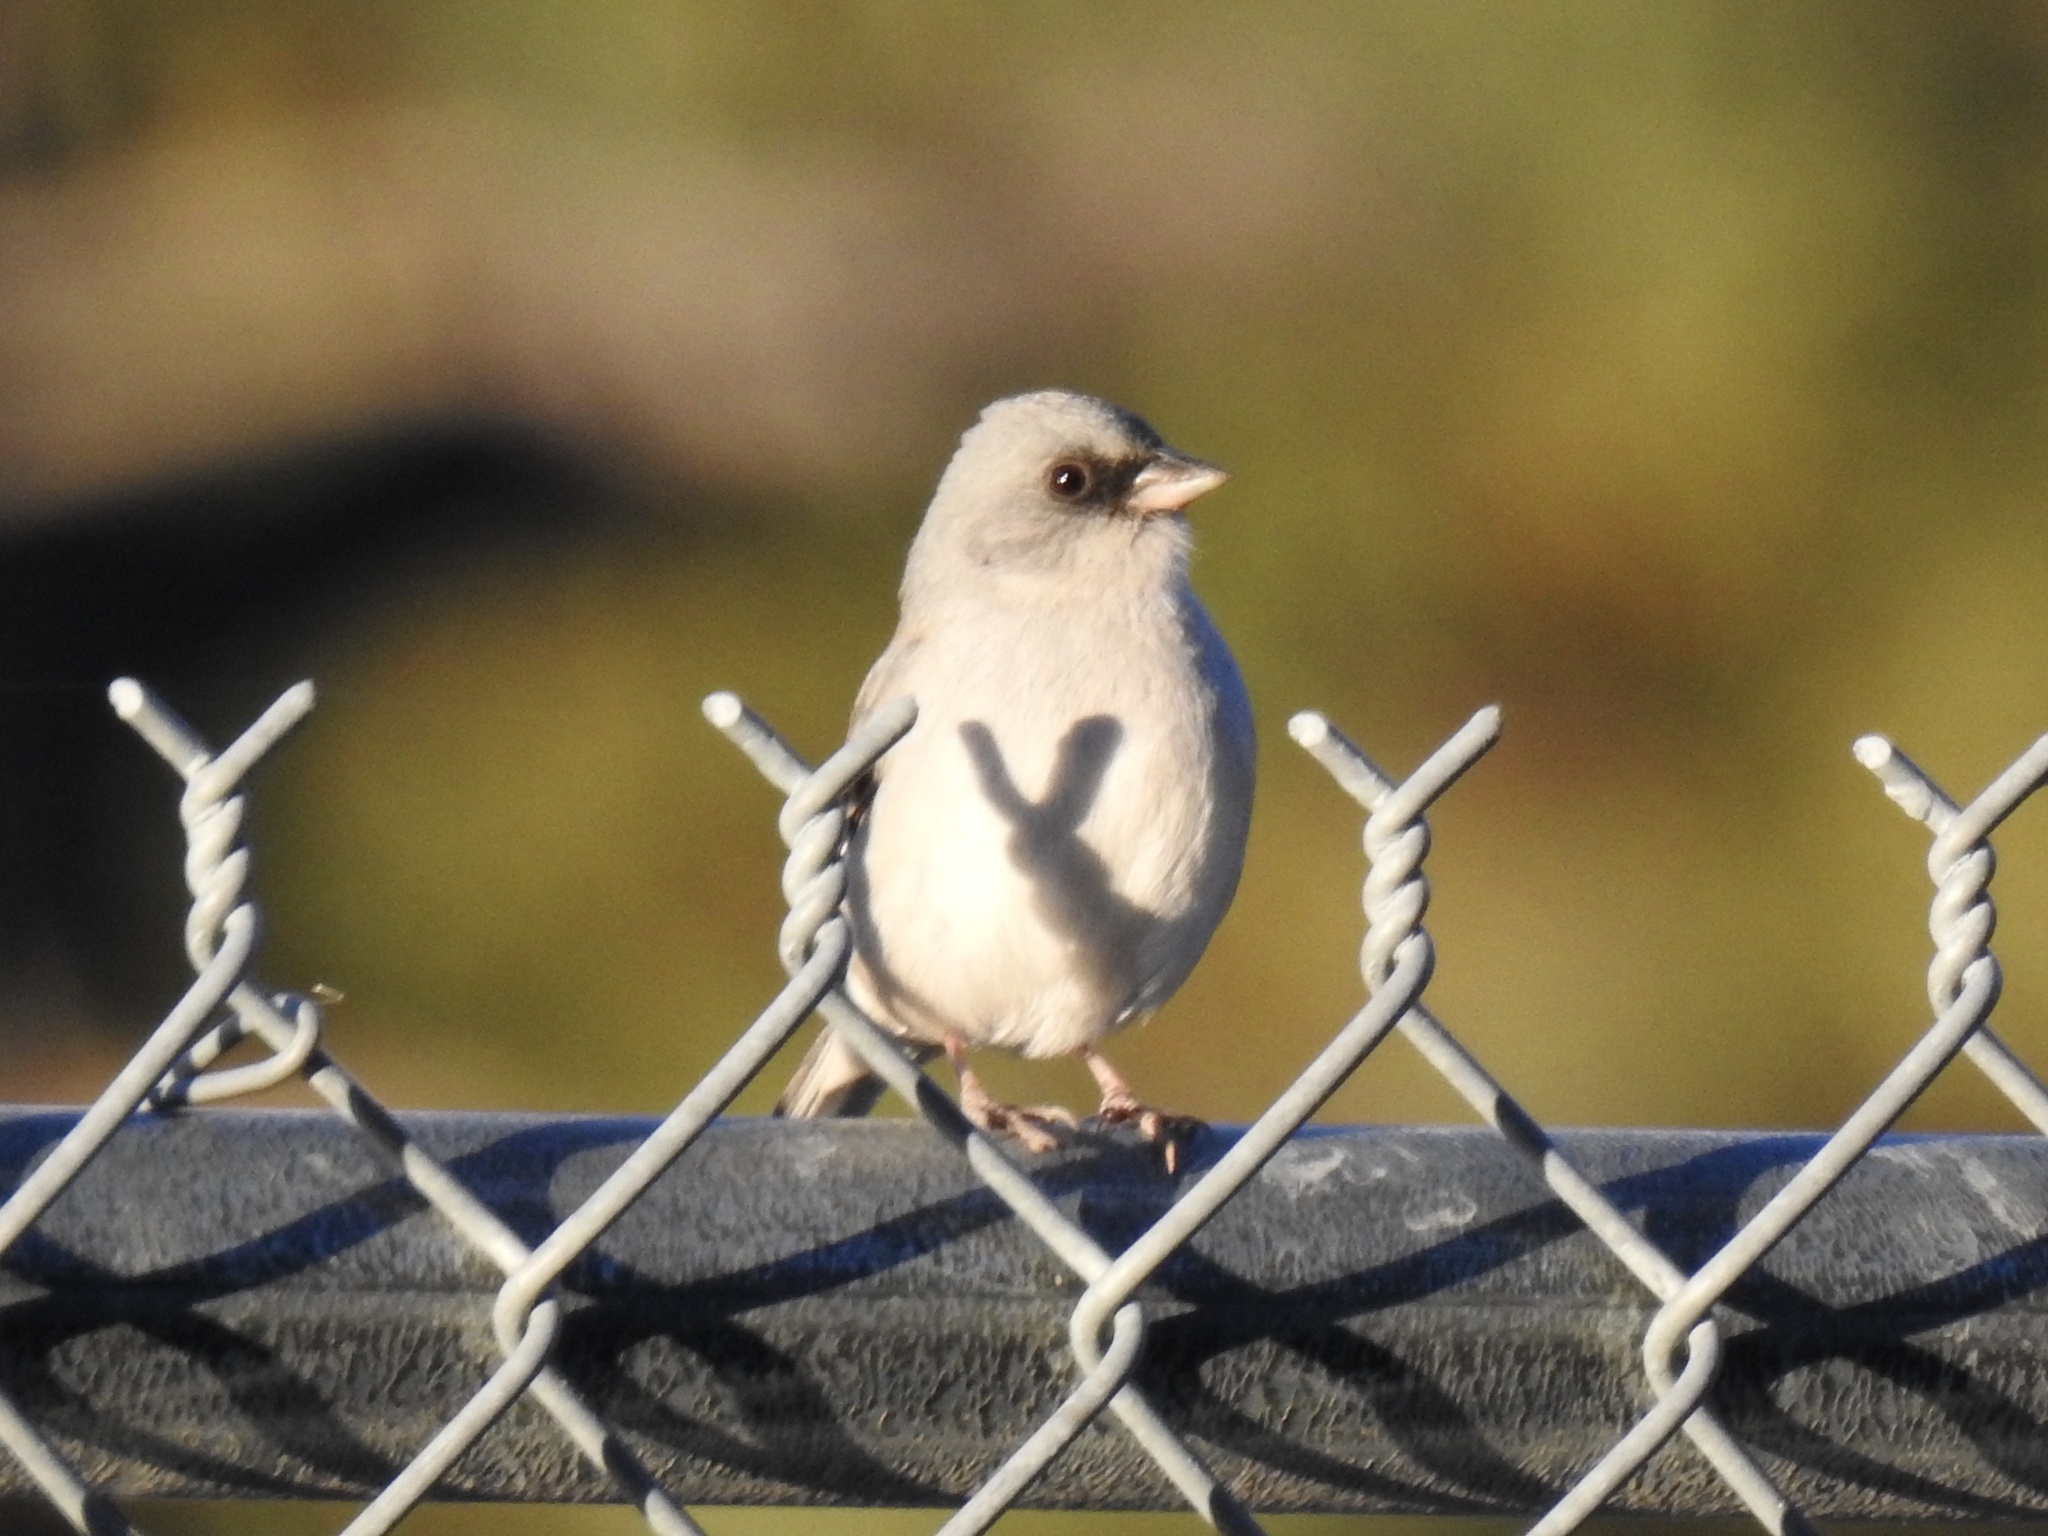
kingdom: Animalia
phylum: Chordata
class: Aves
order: Passeriformes
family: Passerellidae
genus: Junco
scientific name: Junco hyemalis
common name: Dark-eyed junco
